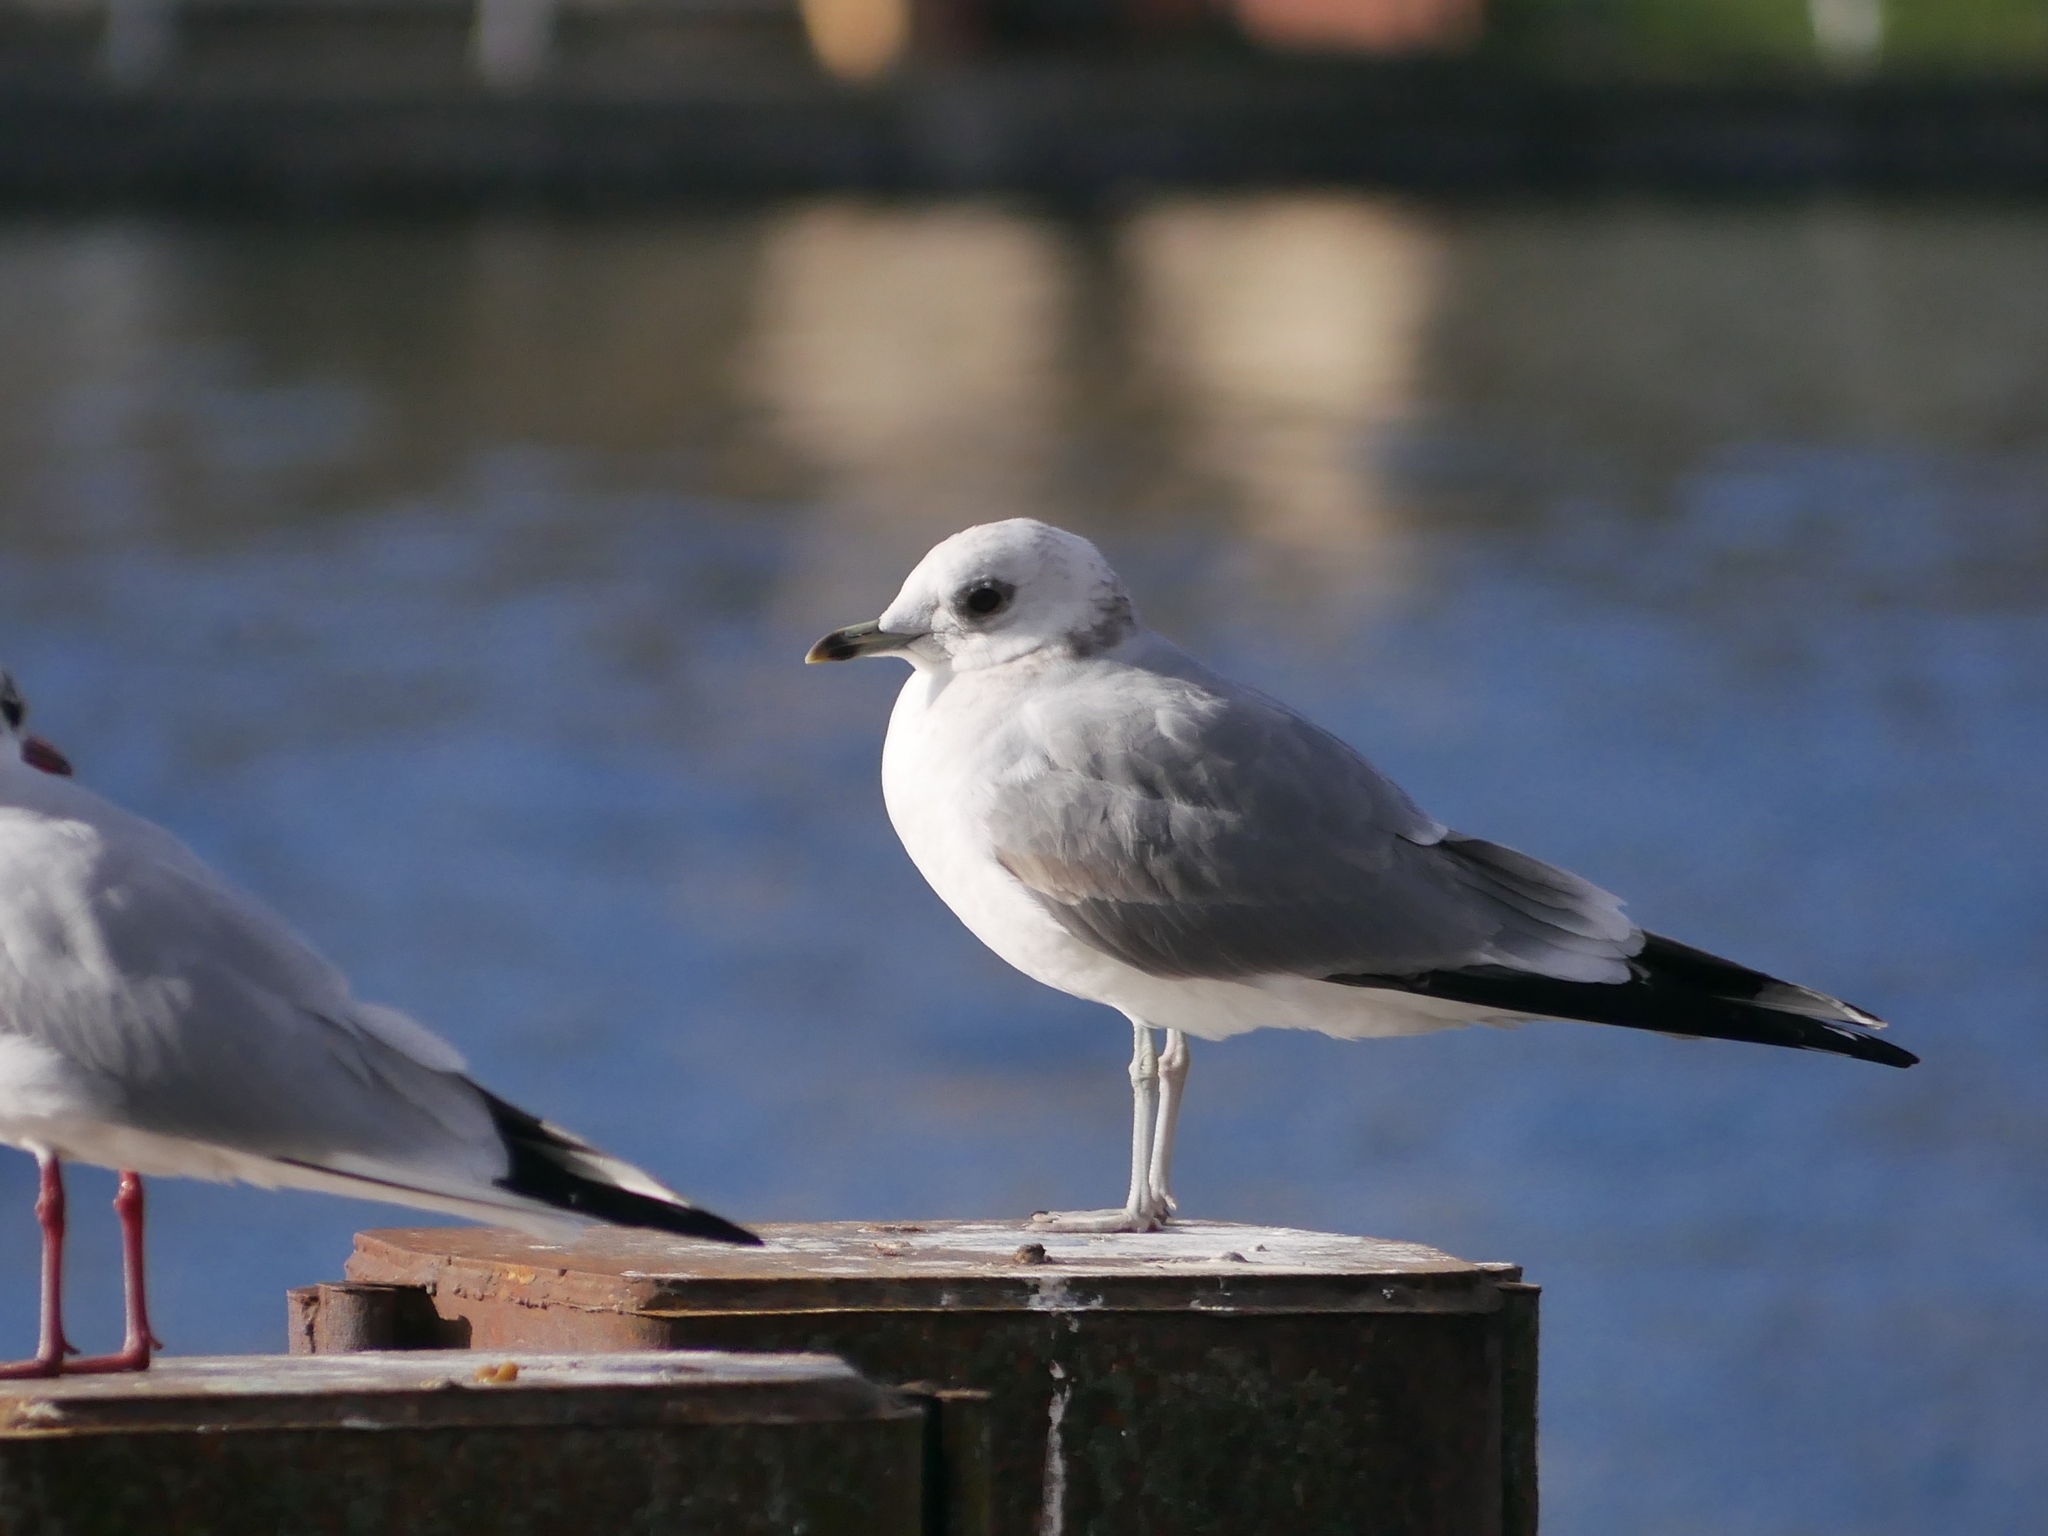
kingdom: Animalia
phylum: Chordata
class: Aves
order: Charadriiformes
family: Laridae
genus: Larus
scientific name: Larus canus
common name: Mew gull
